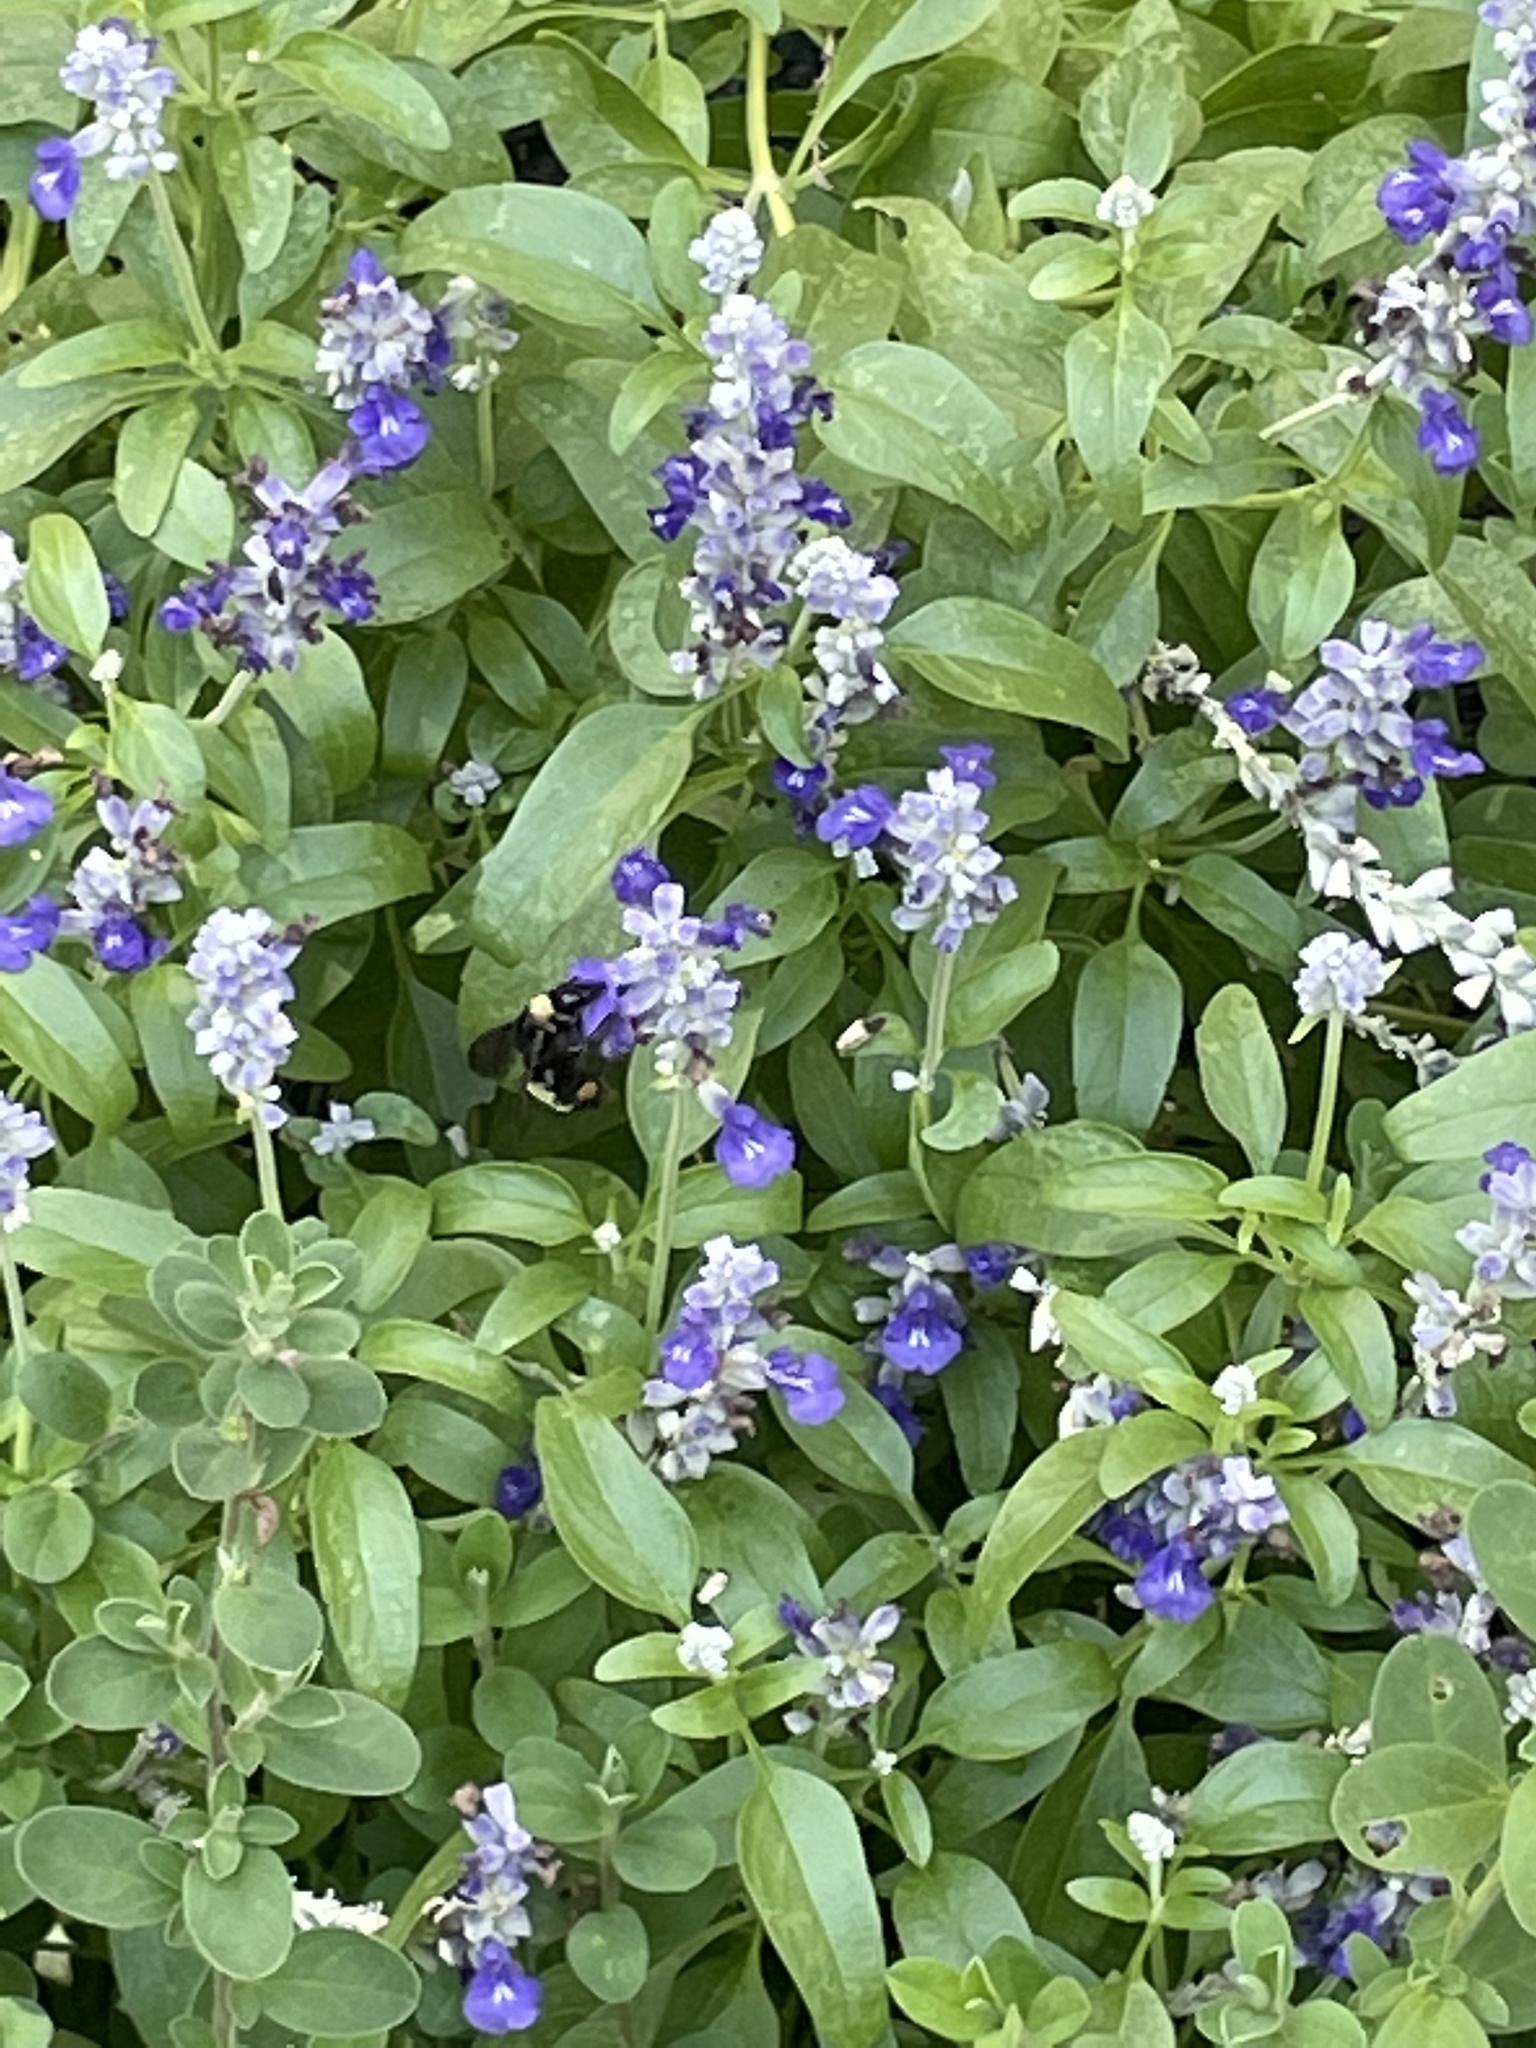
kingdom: Animalia
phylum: Arthropoda
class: Insecta
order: Hymenoptera
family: Apidae
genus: Bombus
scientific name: Bombus pensylvanicus
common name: Bumble bee
